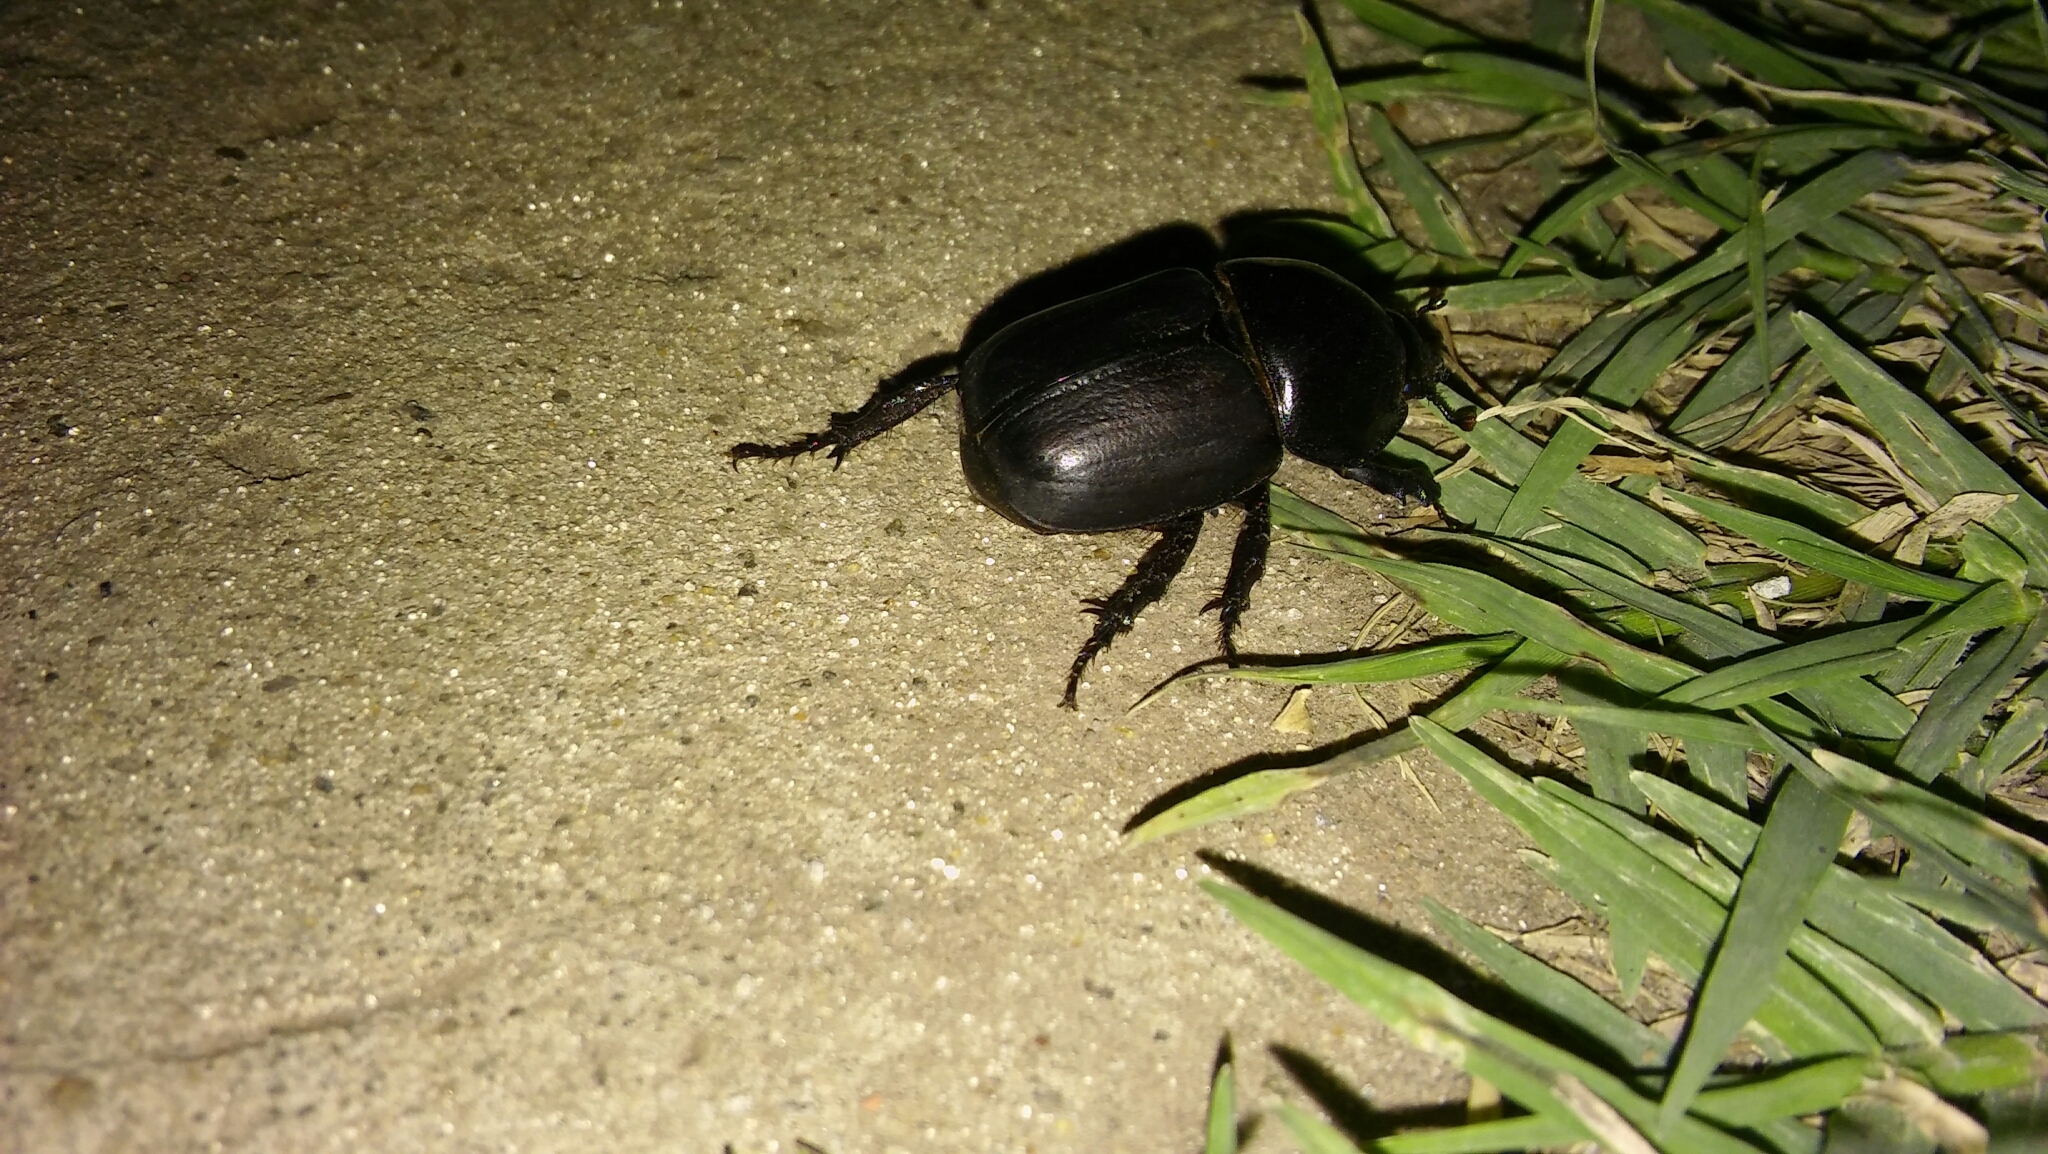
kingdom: Animalia
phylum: Arthropoda
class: Insecta
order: Coleoptera
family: Scarabaeidae
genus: Diloboderus
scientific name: Diloboderus abderus
